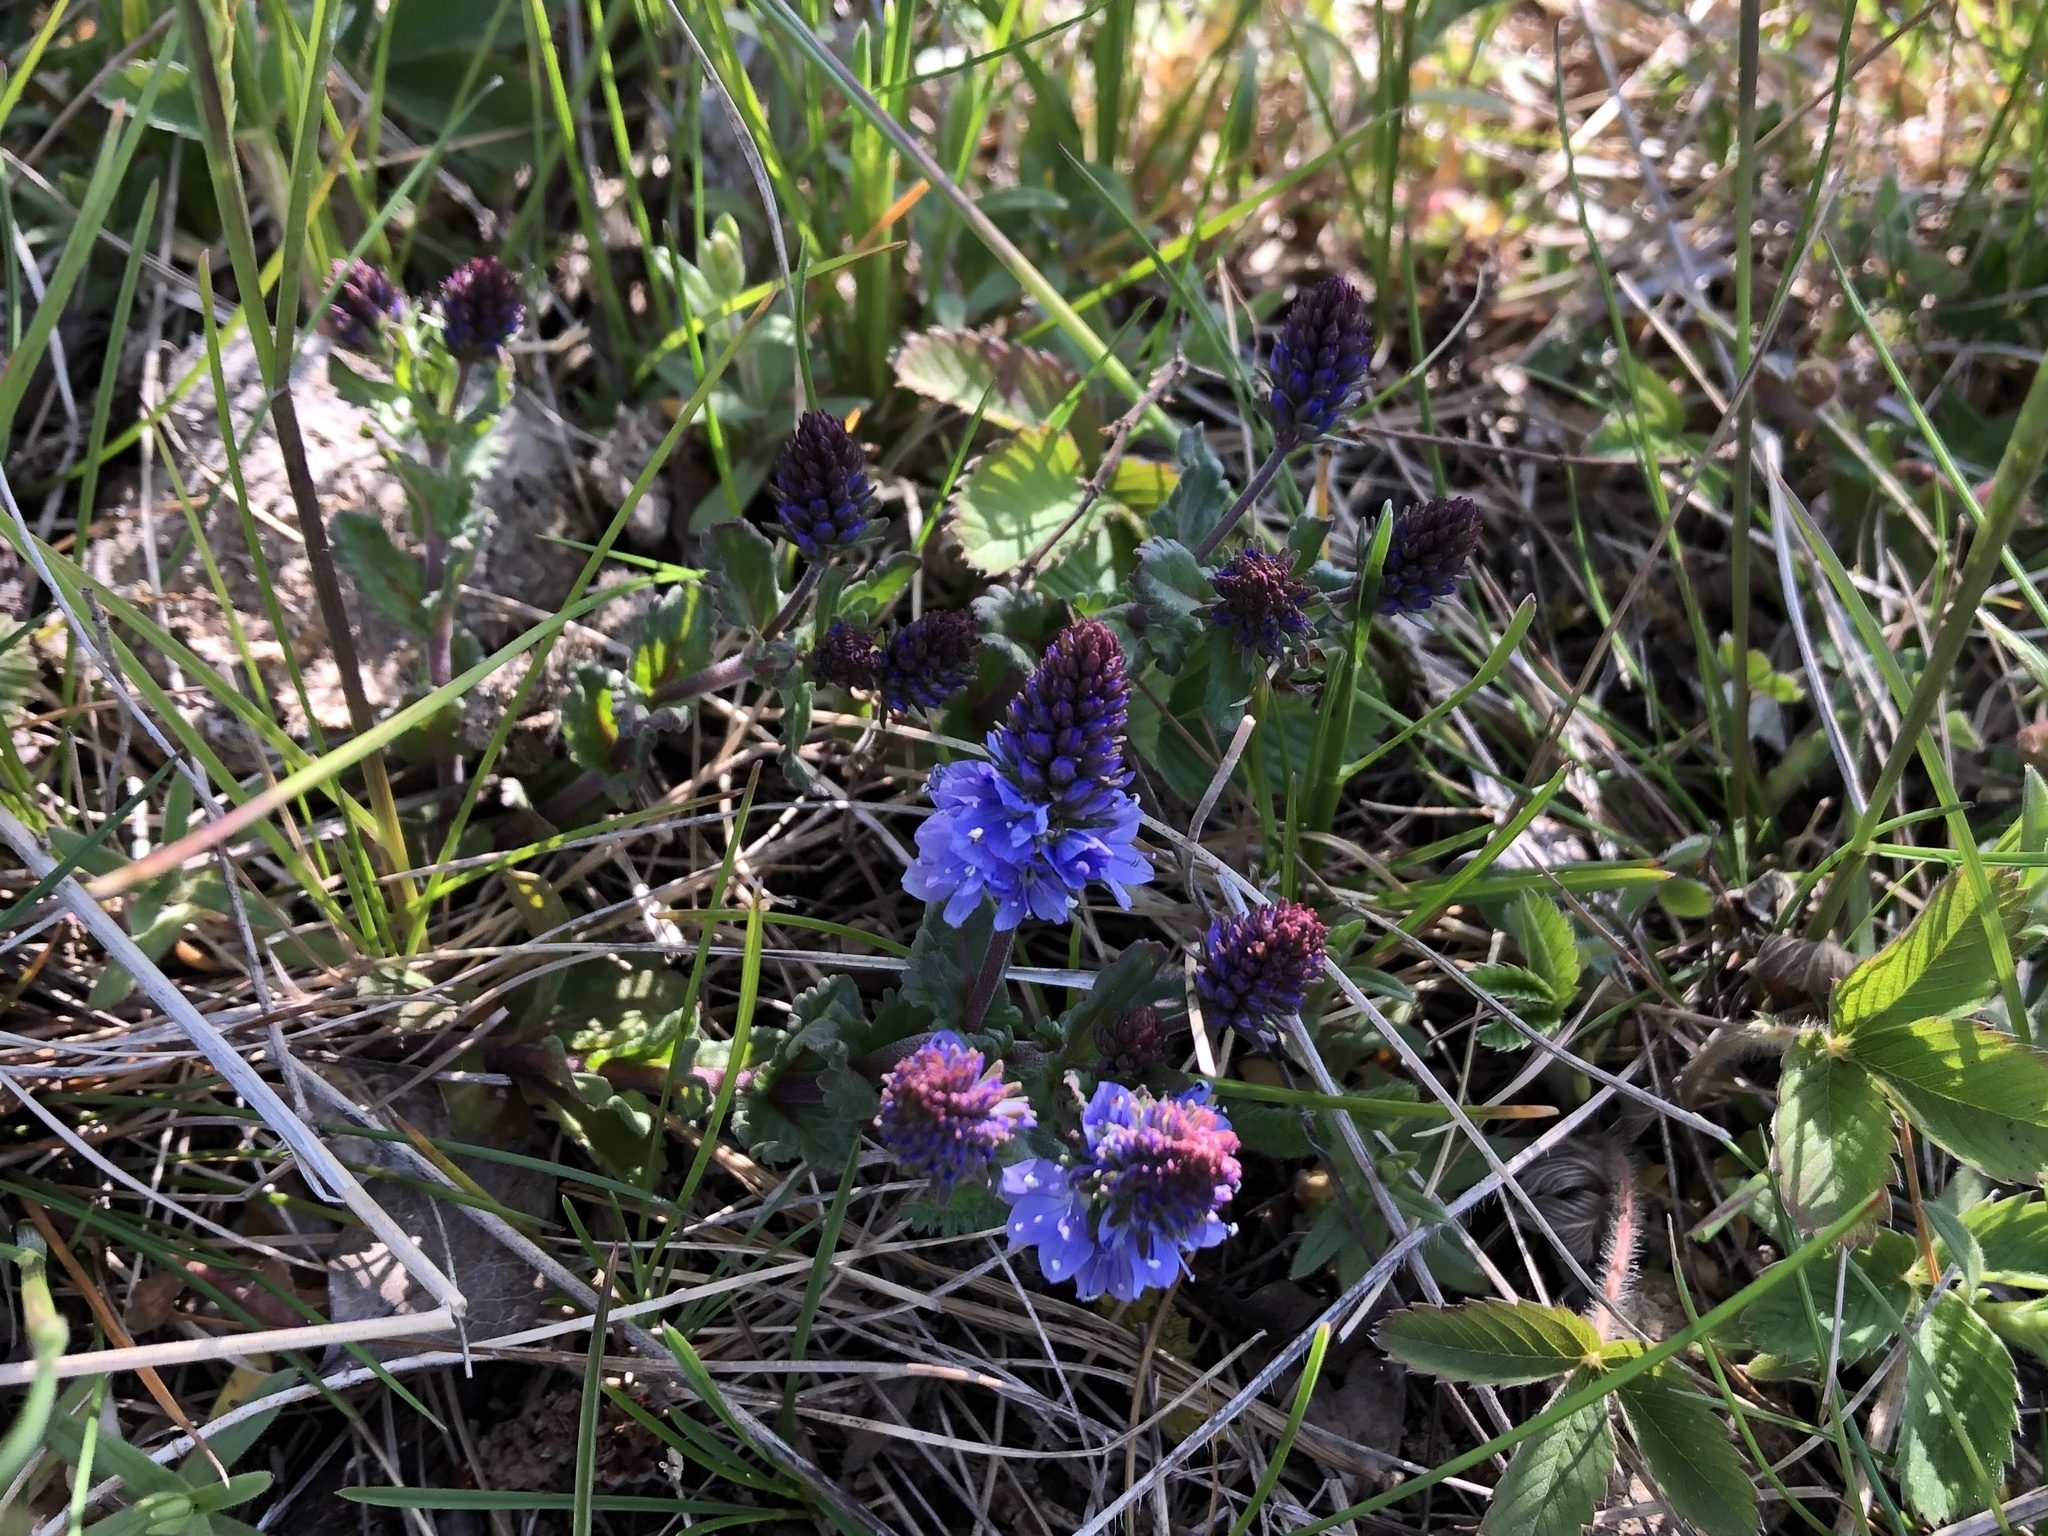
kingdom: Plantae
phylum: Tracheophyta
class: Magnoliopsida
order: Lamiales
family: Plantaginaceae
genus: Veronica
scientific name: Veronica prostrata
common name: Prostrate speedwell
